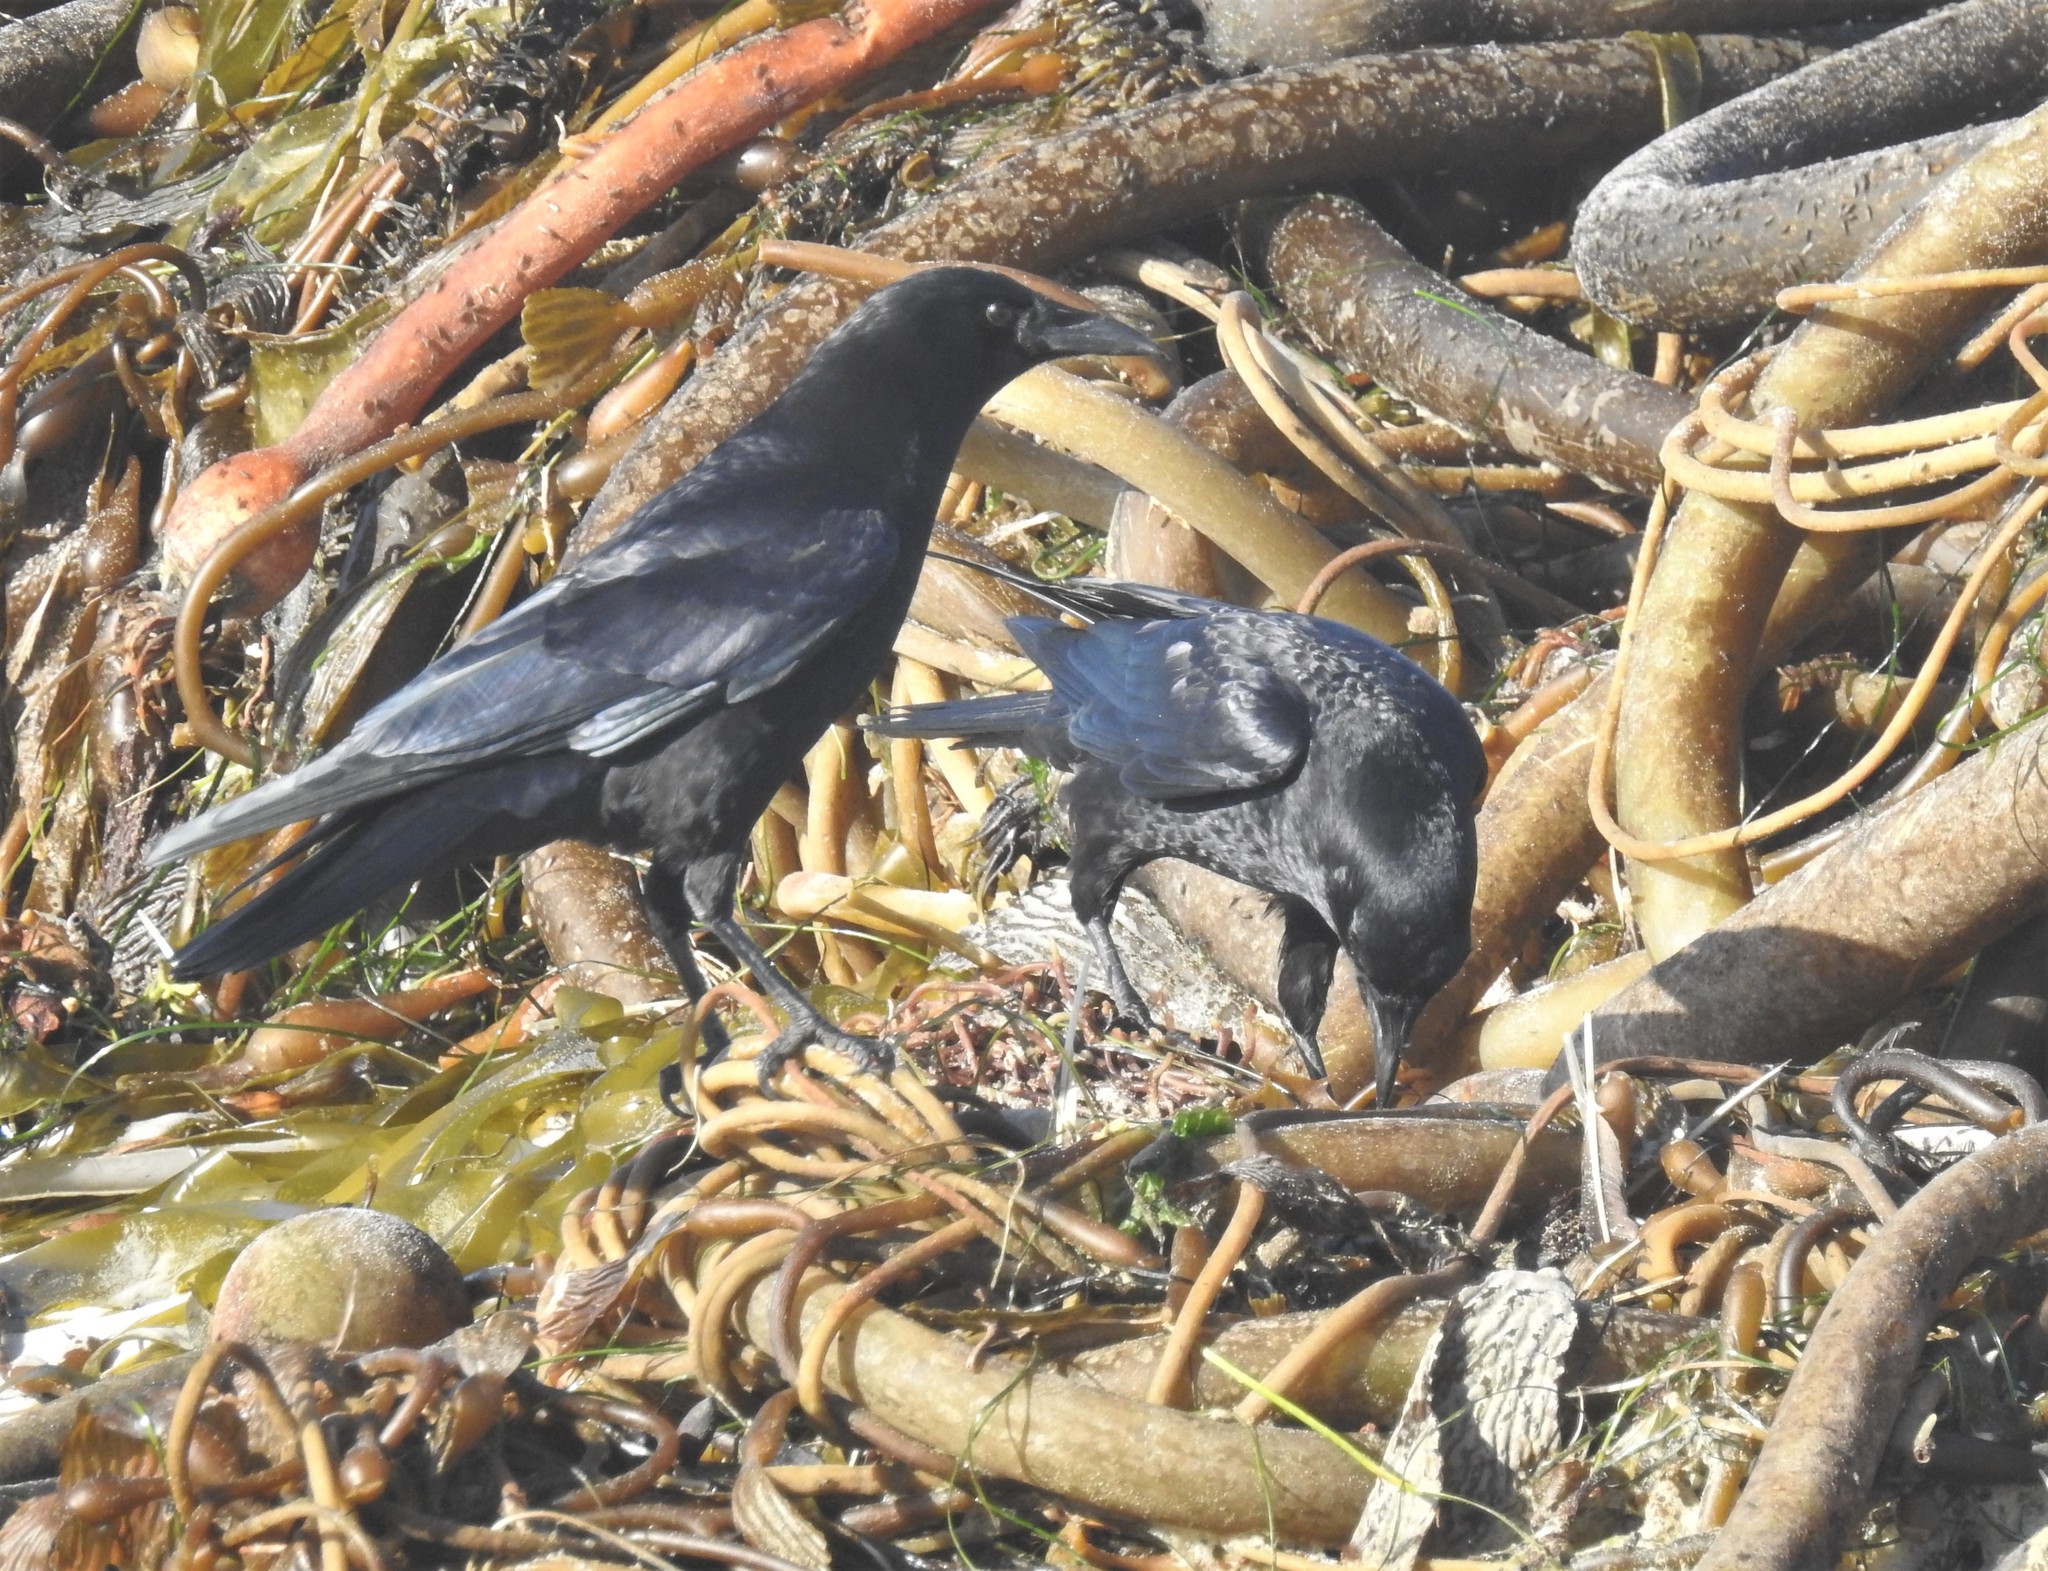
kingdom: Animalia
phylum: Chordata
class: Aves
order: Passeriformes
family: Corvidae
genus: Corvus
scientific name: Corvus brachyrhynchos
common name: American crow
